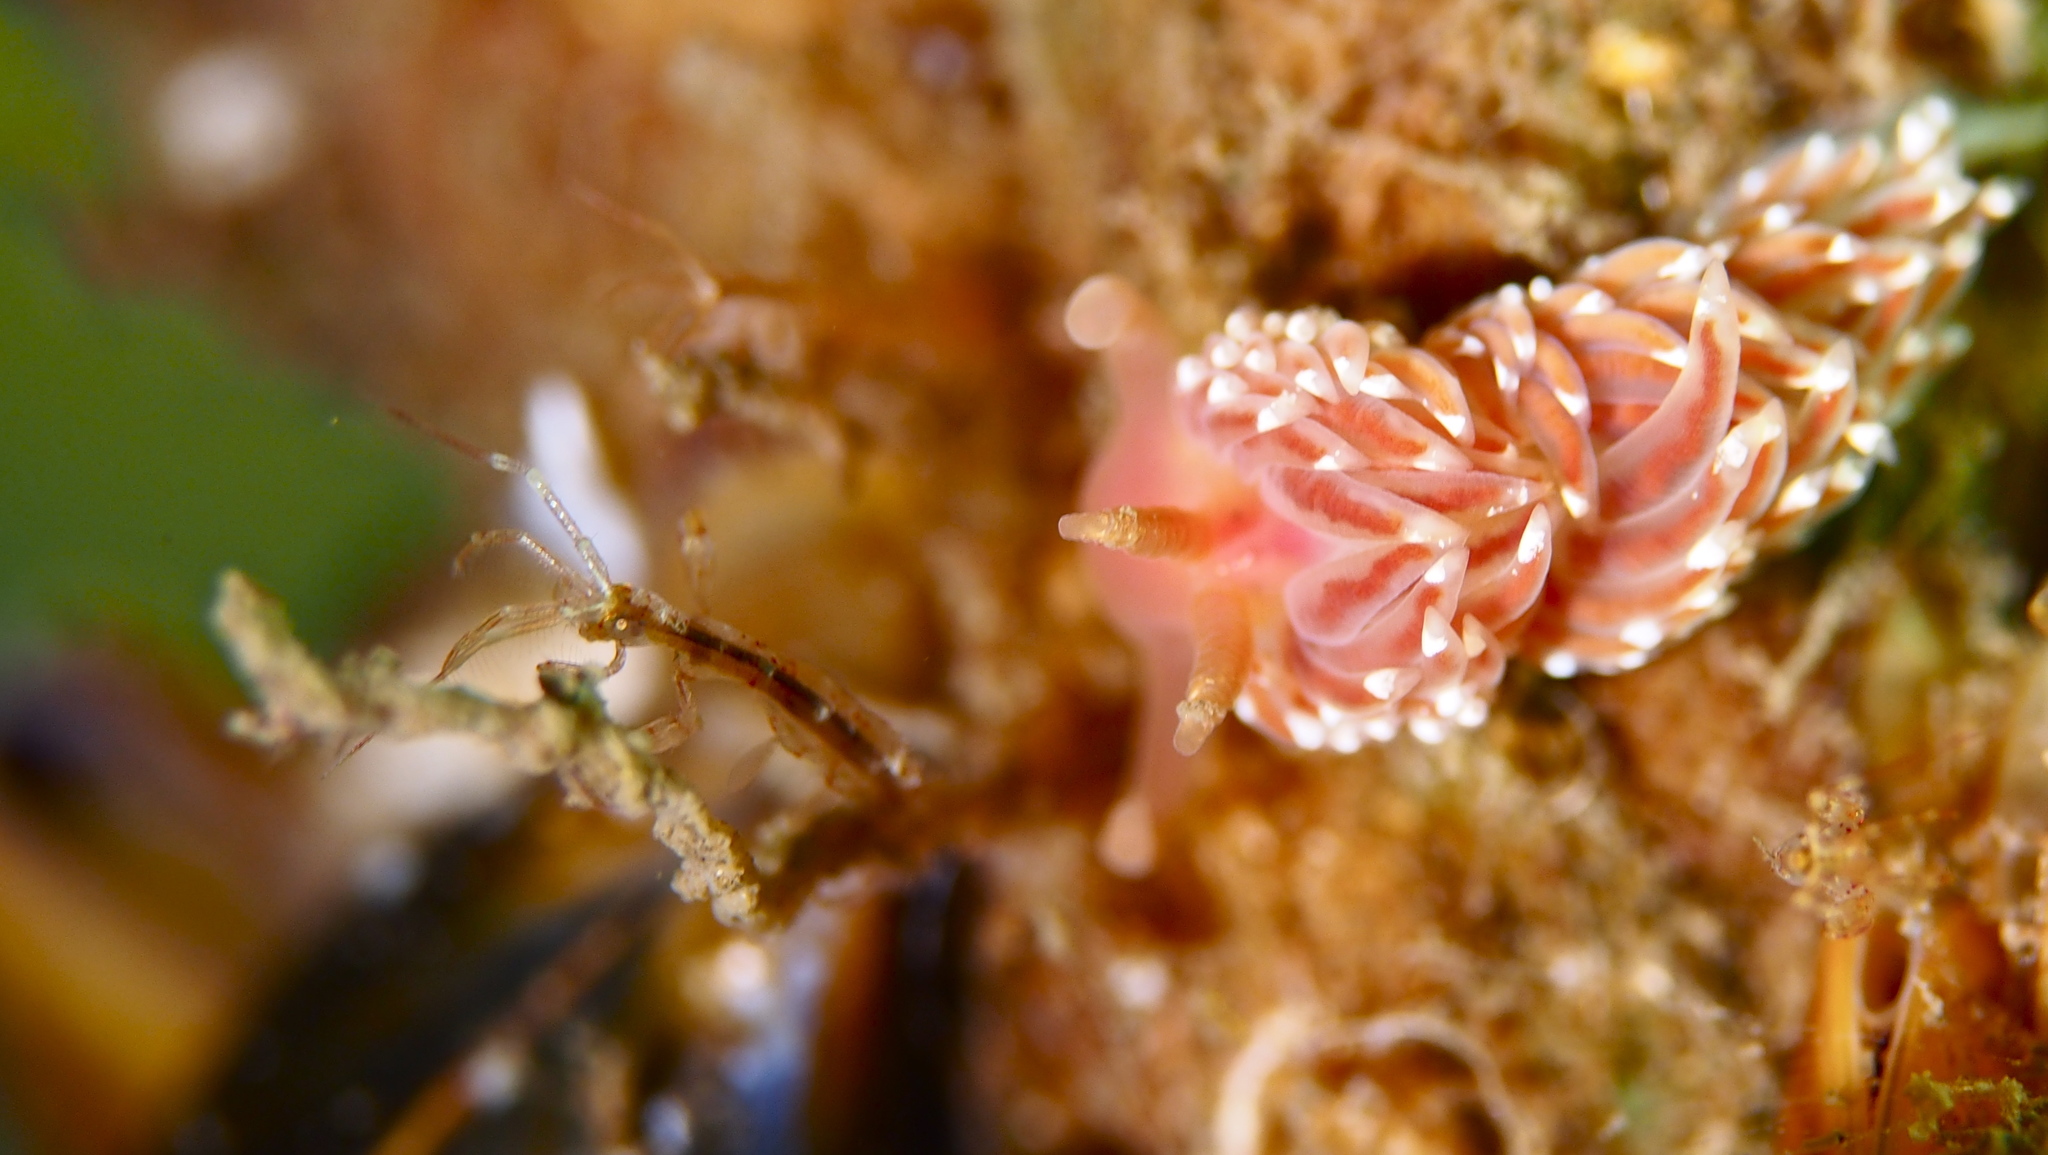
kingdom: Animalia
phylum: Mollusca
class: Gastropoda
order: Nudibranchia
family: Facelinidae
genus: Facelina
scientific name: Facelina bostoniensis
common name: Boston facelina
